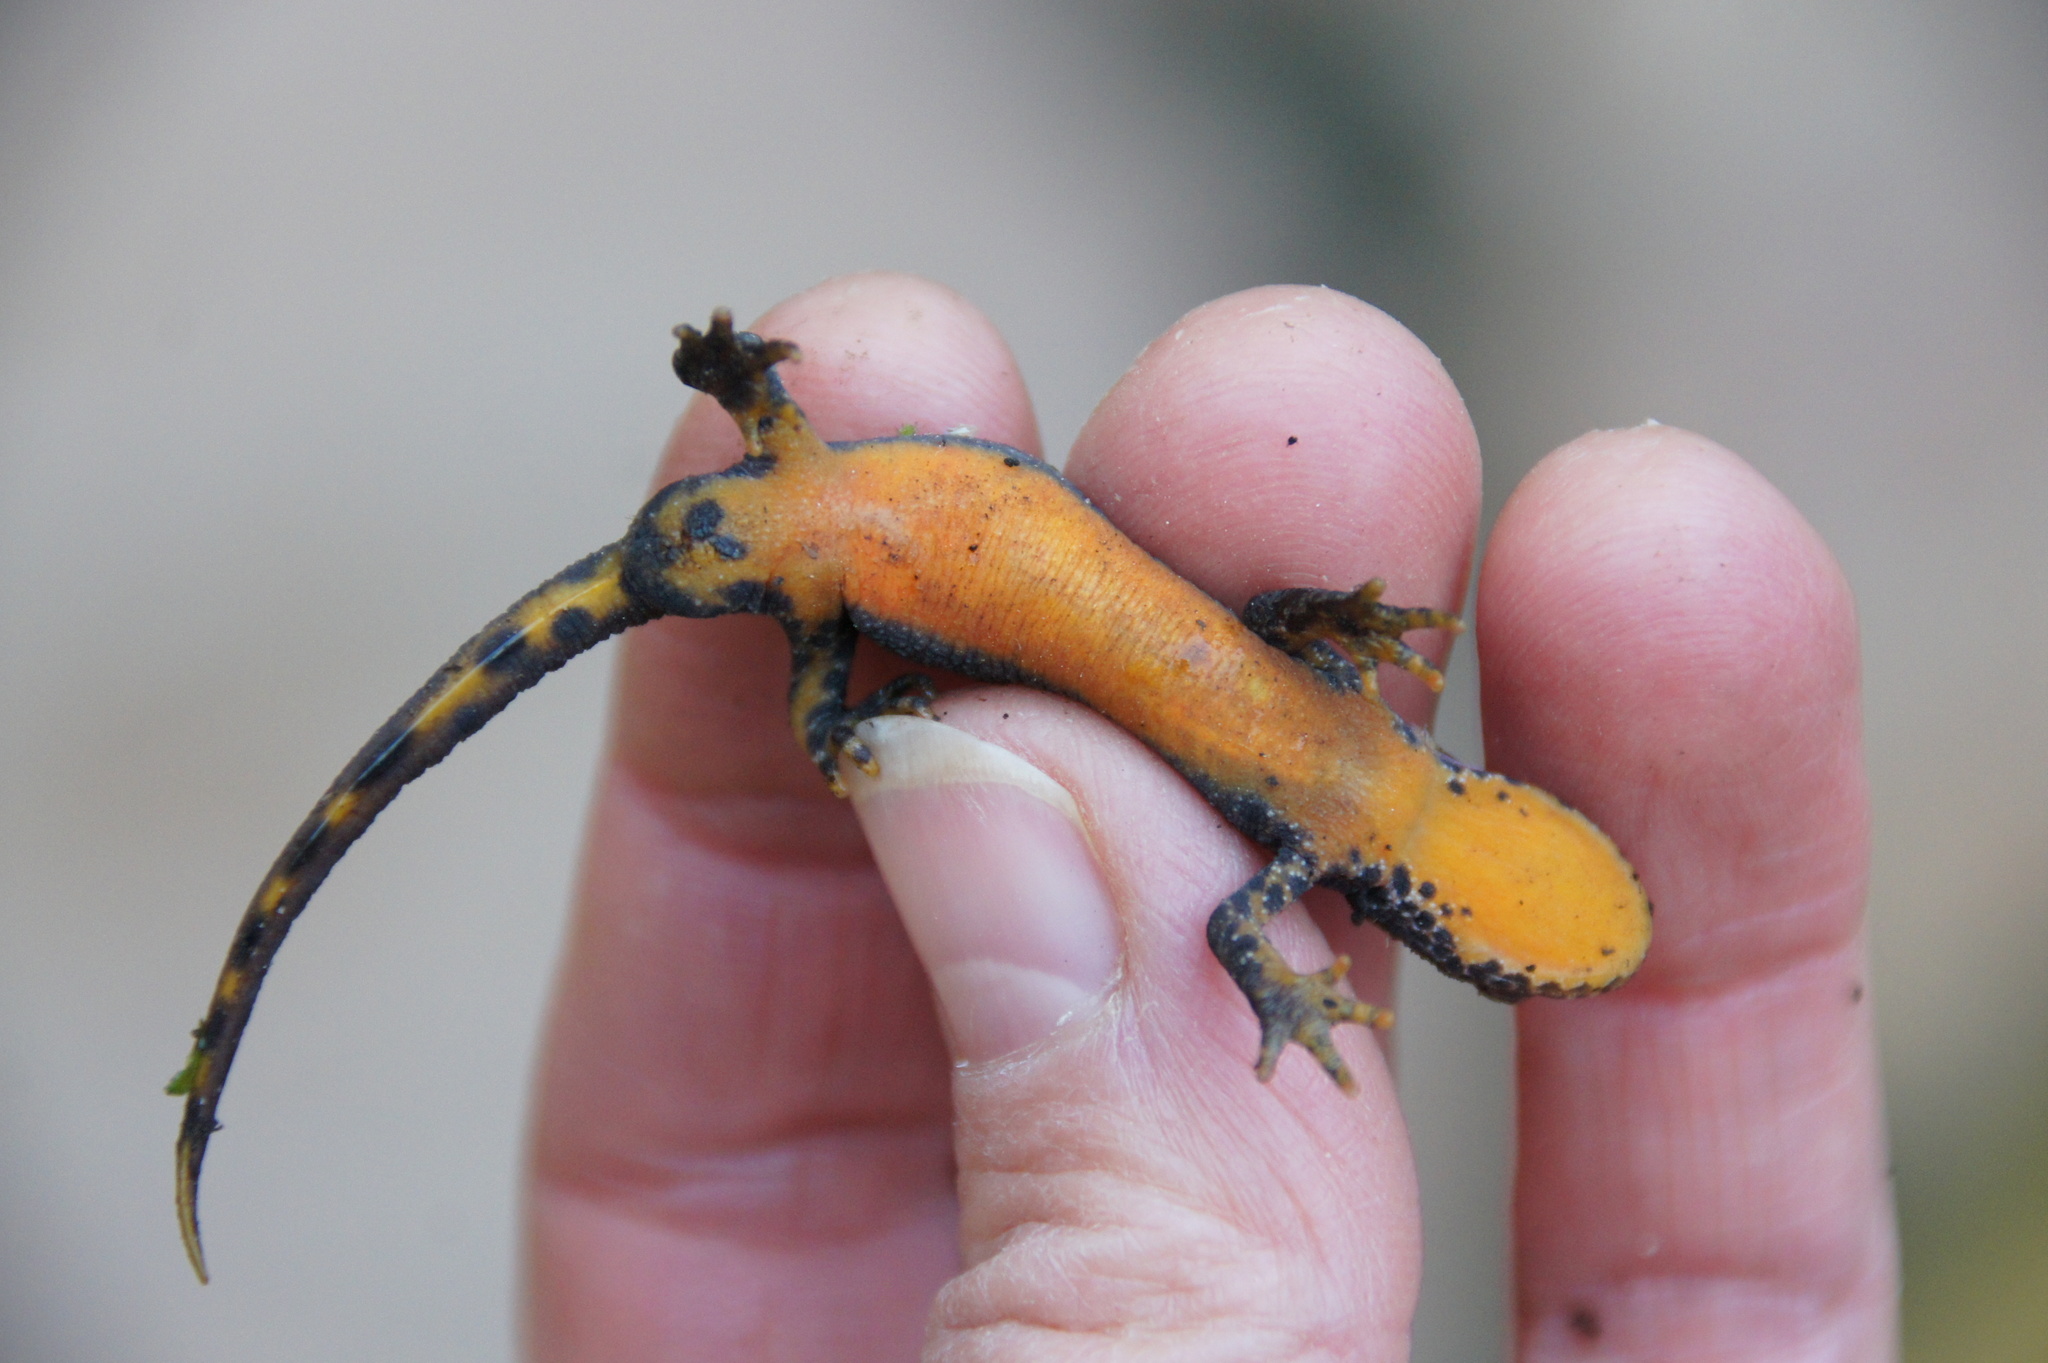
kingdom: Animalia
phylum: Chordata
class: Amphibia
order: Caudata
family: Salamandridae
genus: Ichthyosaura
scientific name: Ichthyosaura alpestris
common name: Alpine newt
